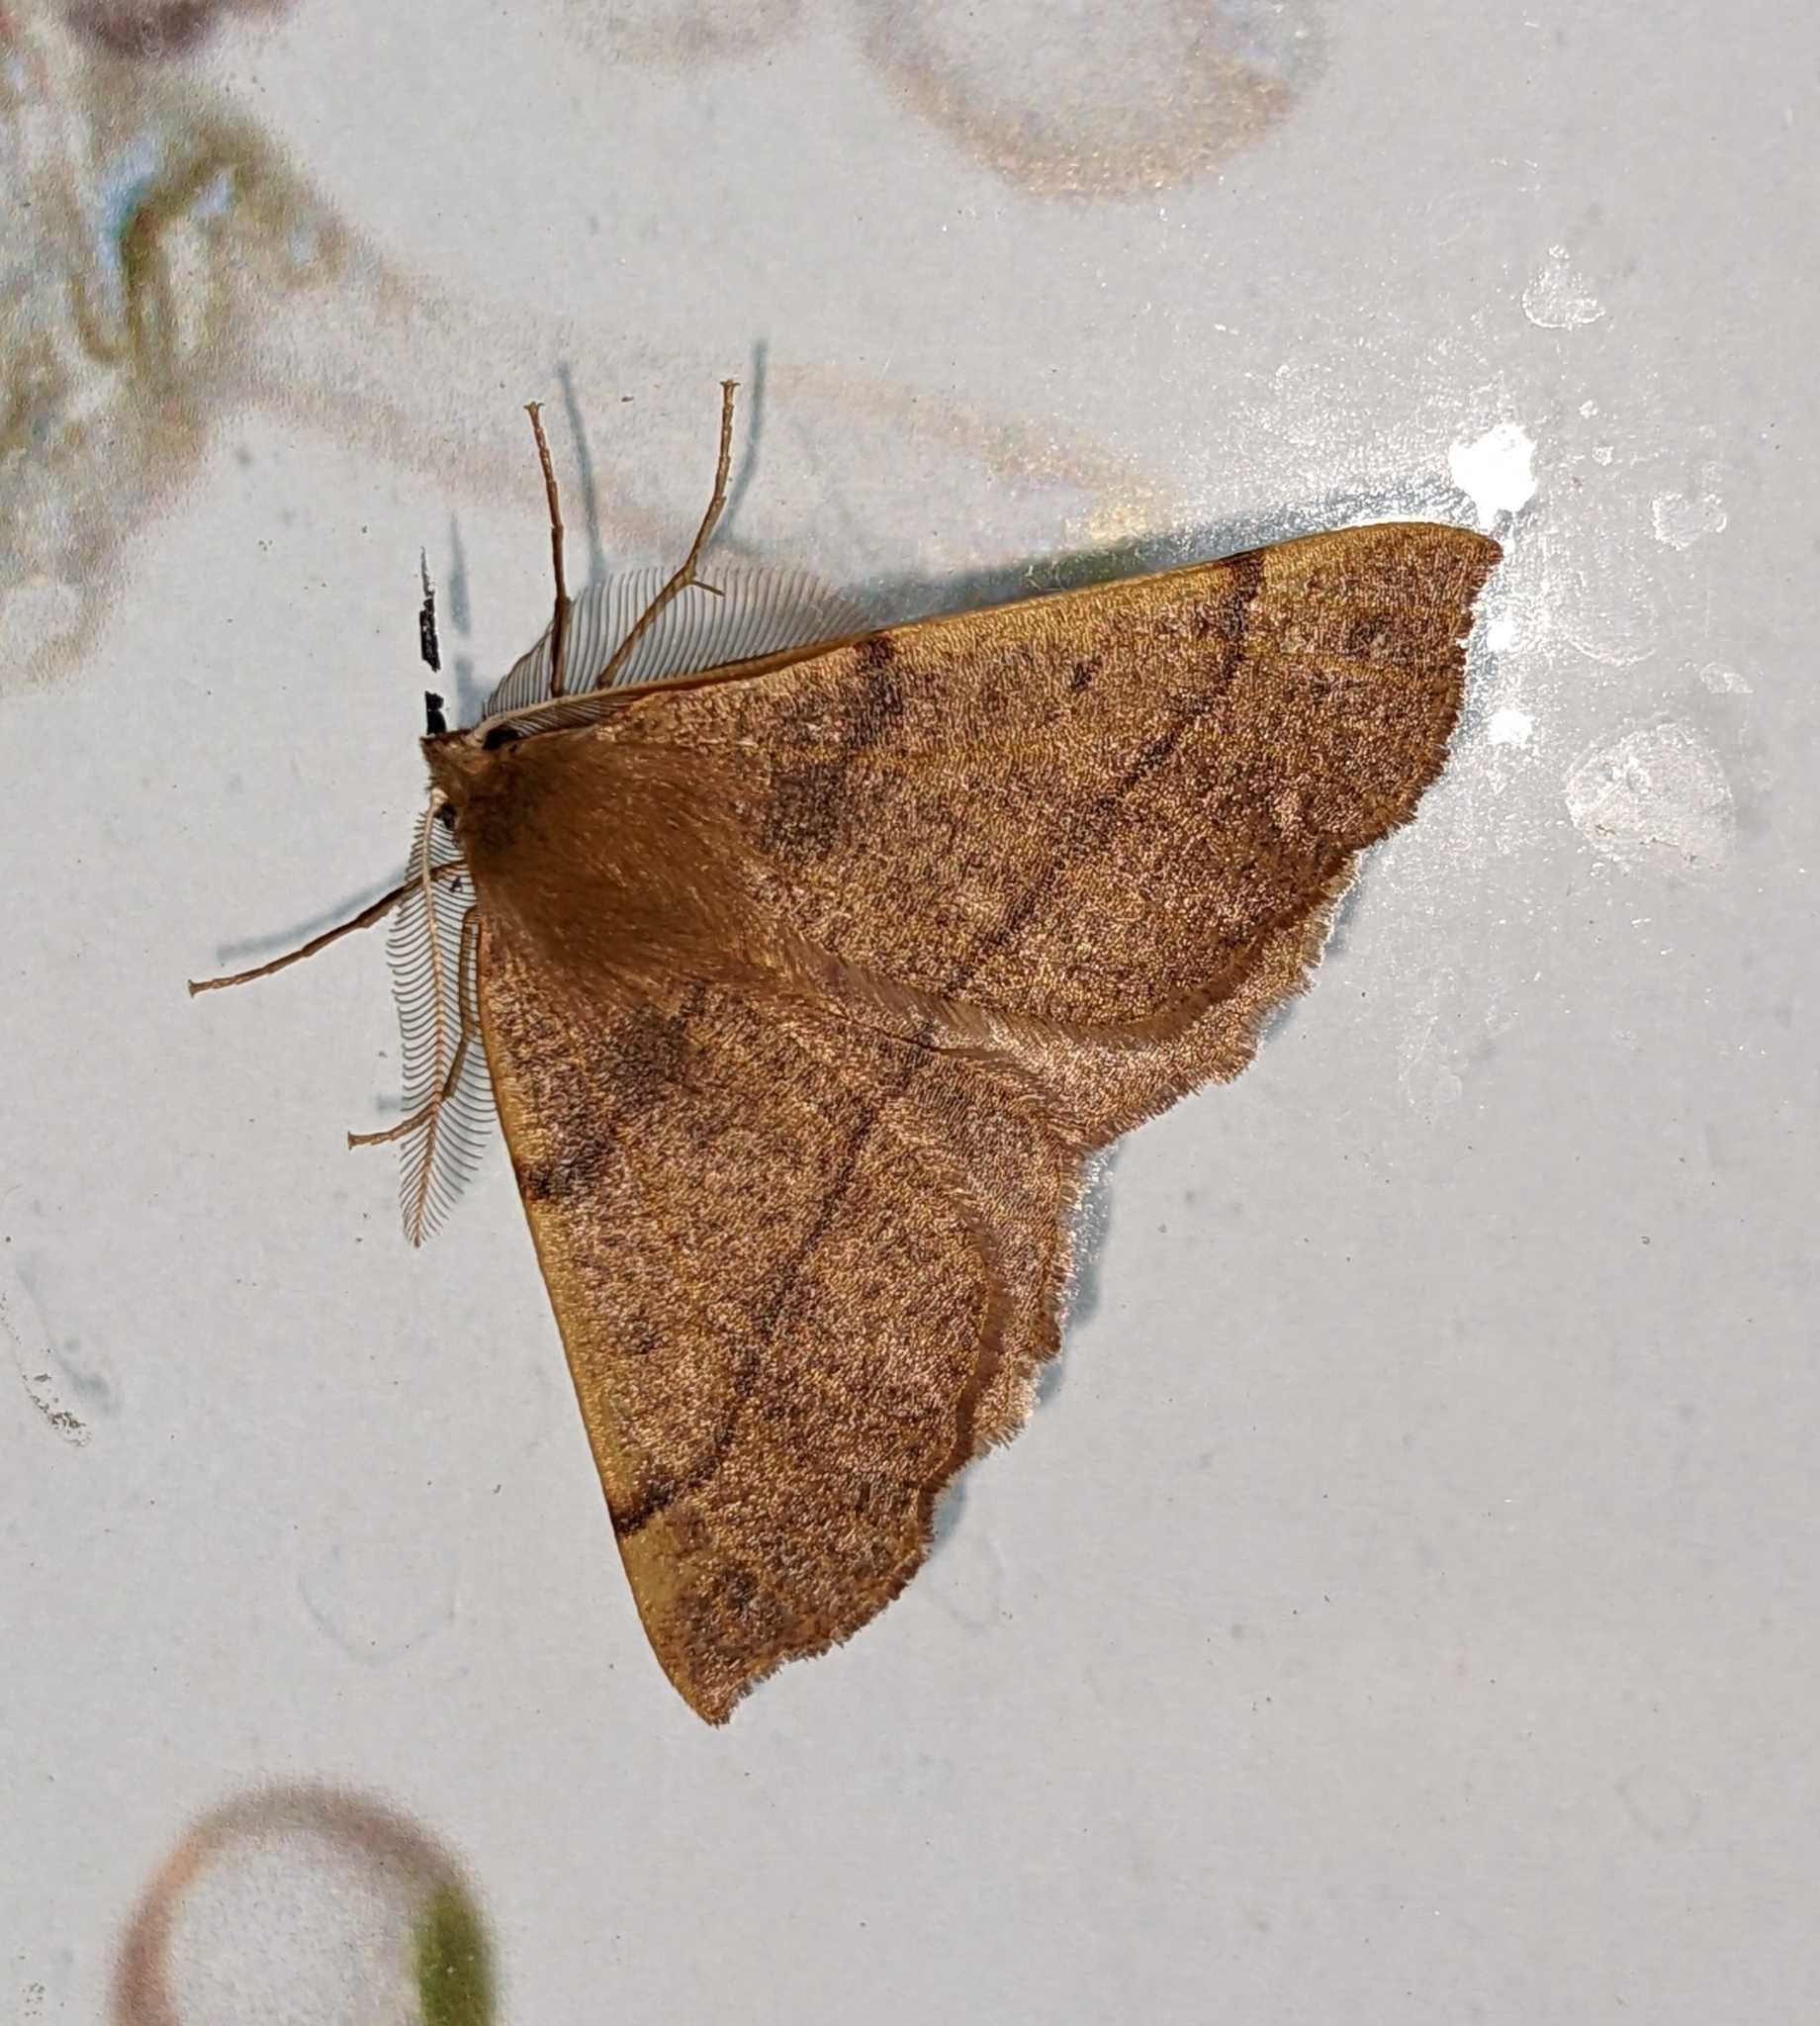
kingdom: Animalia
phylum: Arthropoda
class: Insecta
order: Lepidoptera
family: Geometridae
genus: Colotois
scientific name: Colotois pennaria
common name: Feathered thorn
